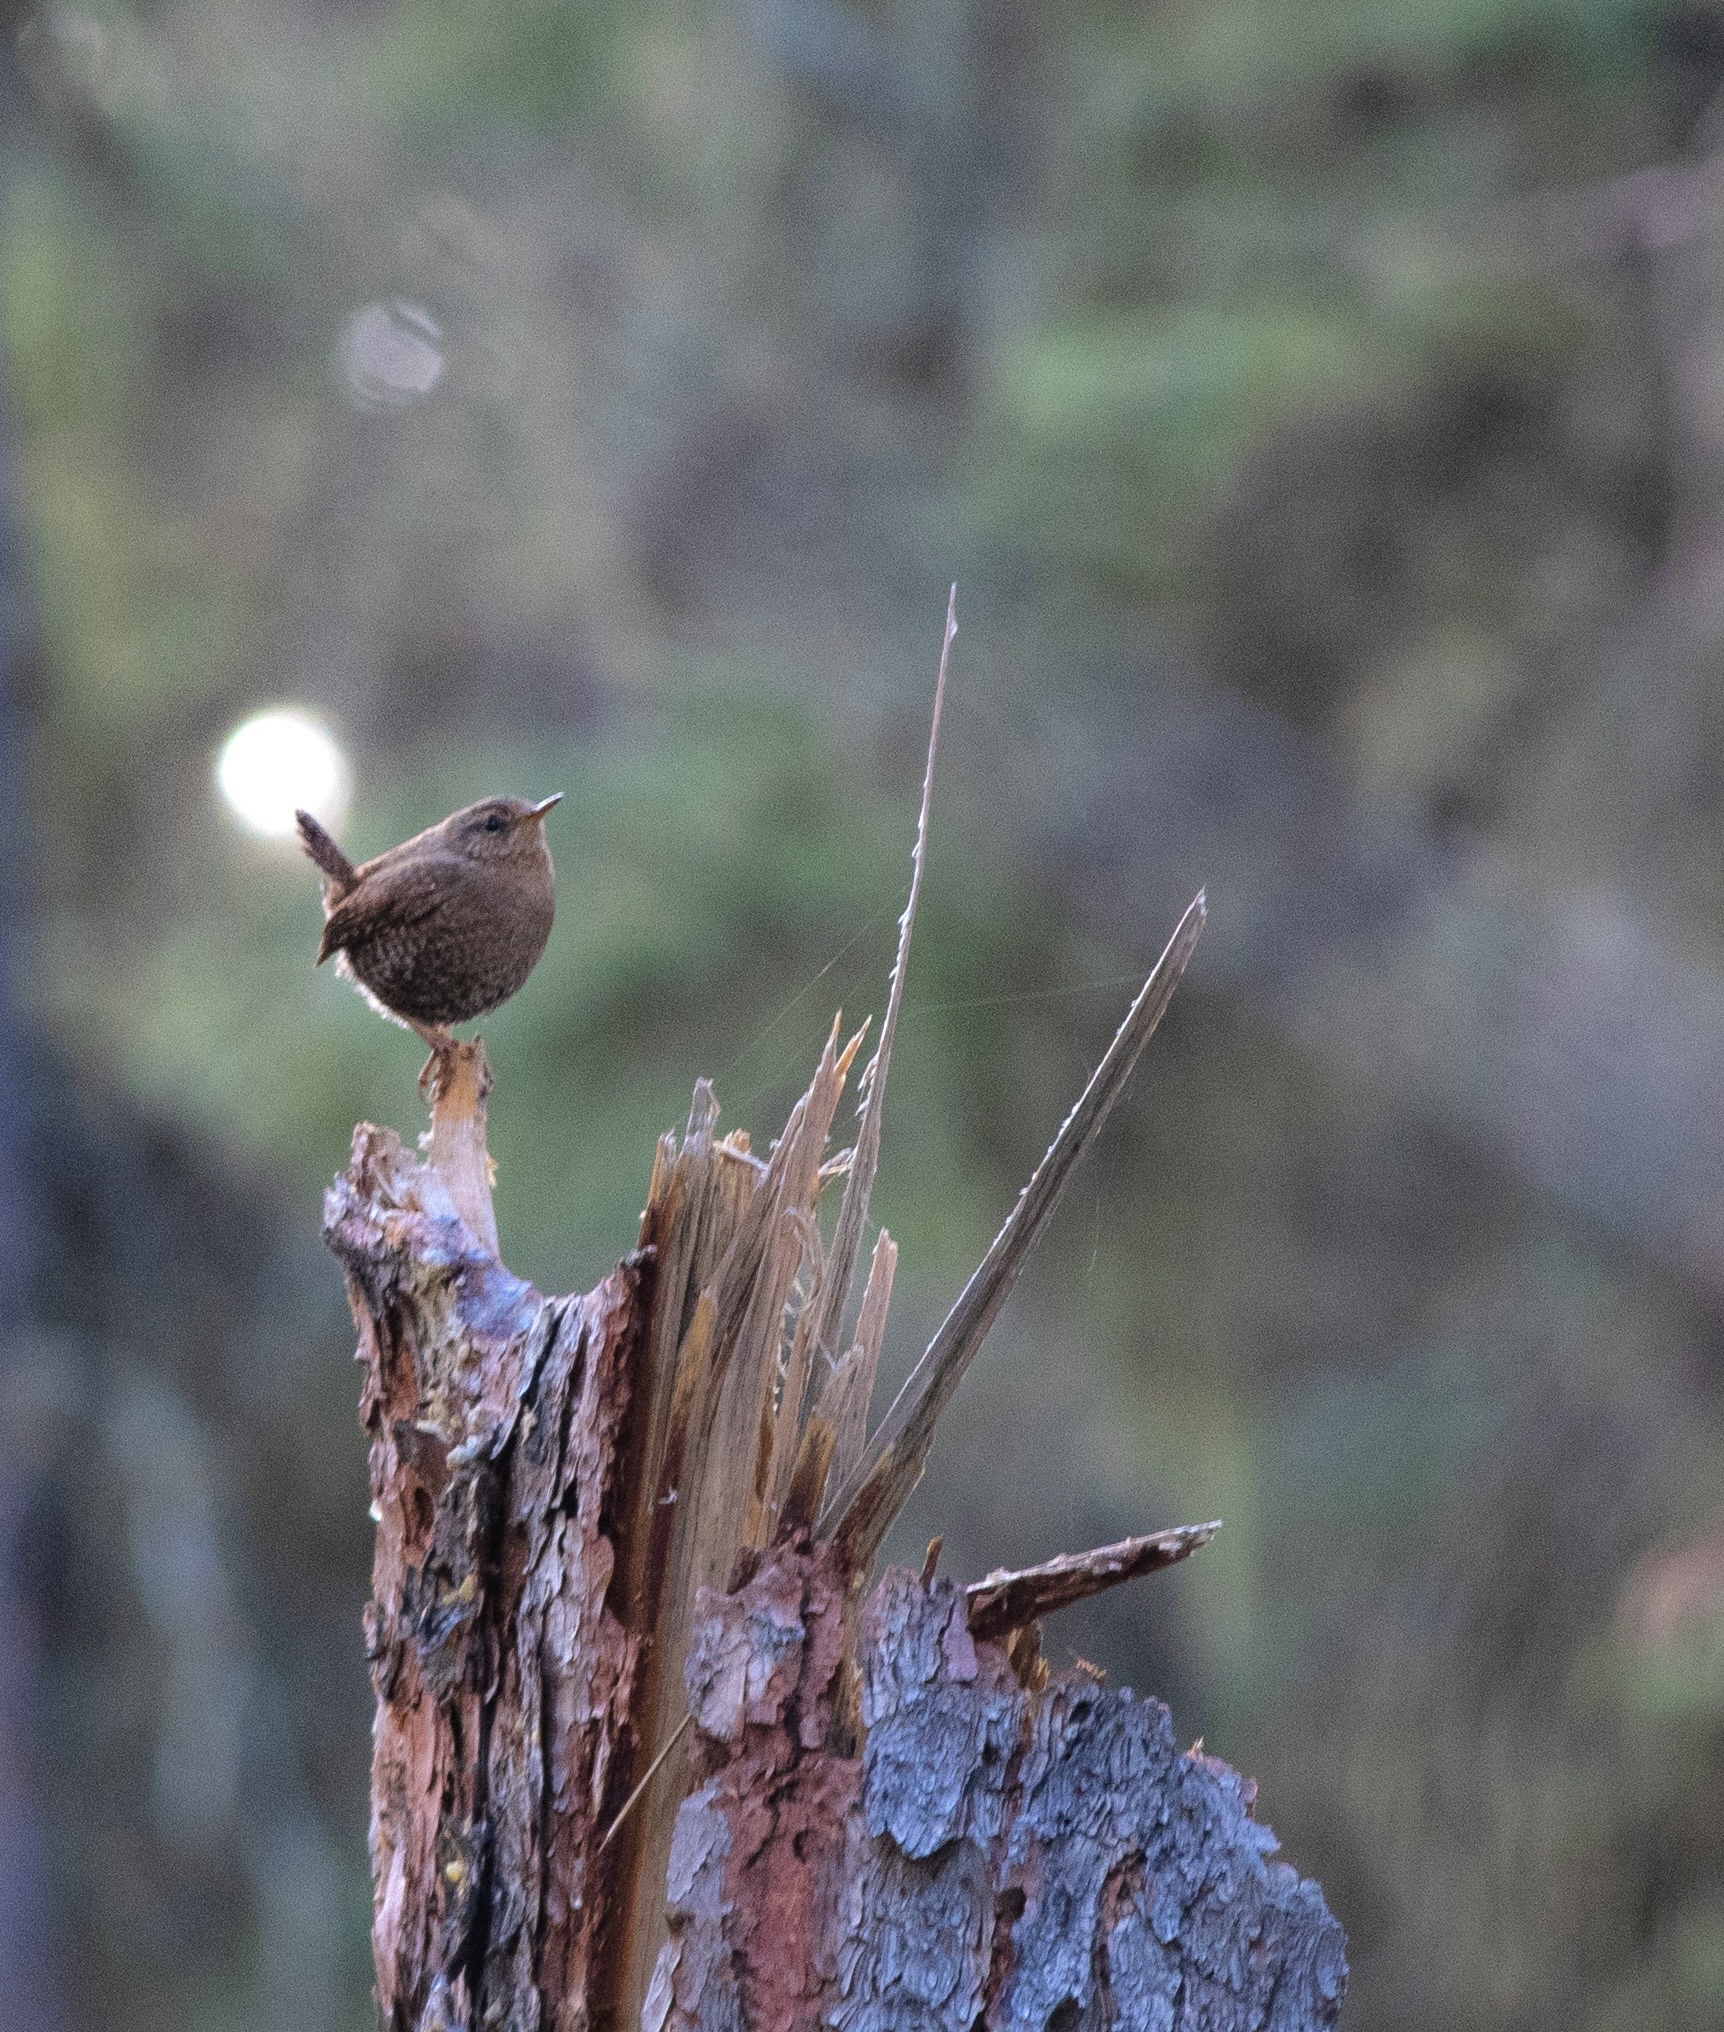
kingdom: Animalia
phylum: Chordata
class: Aves
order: Passeriformes
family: Troglodytidae
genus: Troglodytes
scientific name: Troglodytes pacificus
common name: Pacific wren
